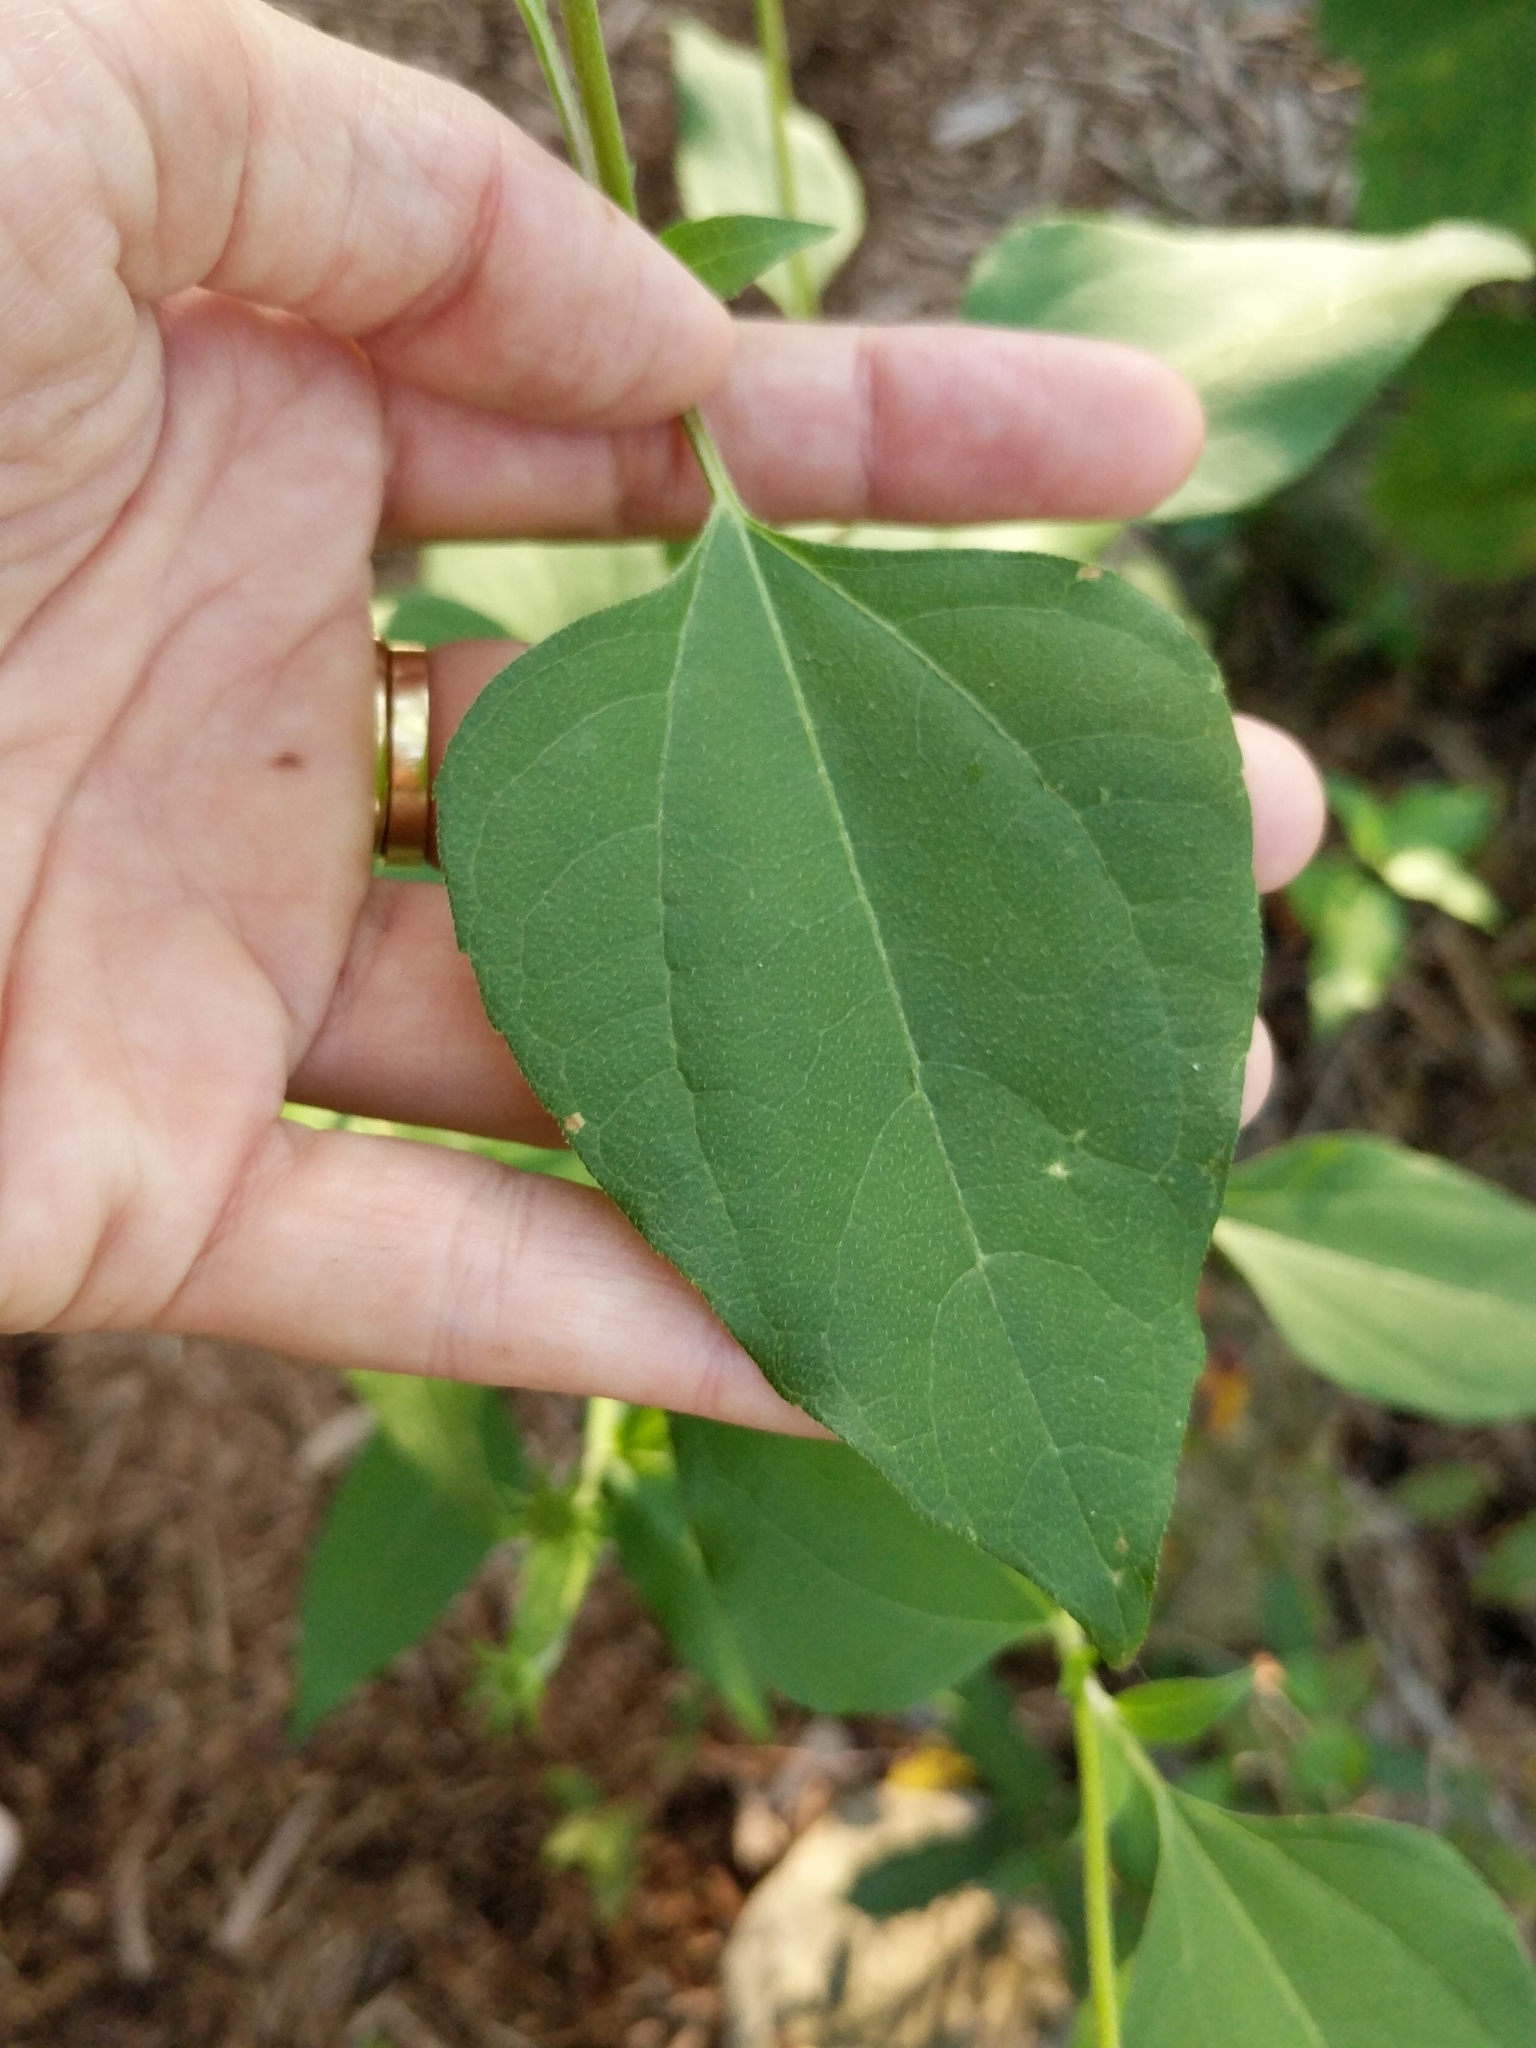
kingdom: Plantae
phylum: Tracheophyta
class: Magnoliopsida
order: Asterales
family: Asteraceae
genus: Viguiera
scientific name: Viguiera dentata
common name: Toothleaf
